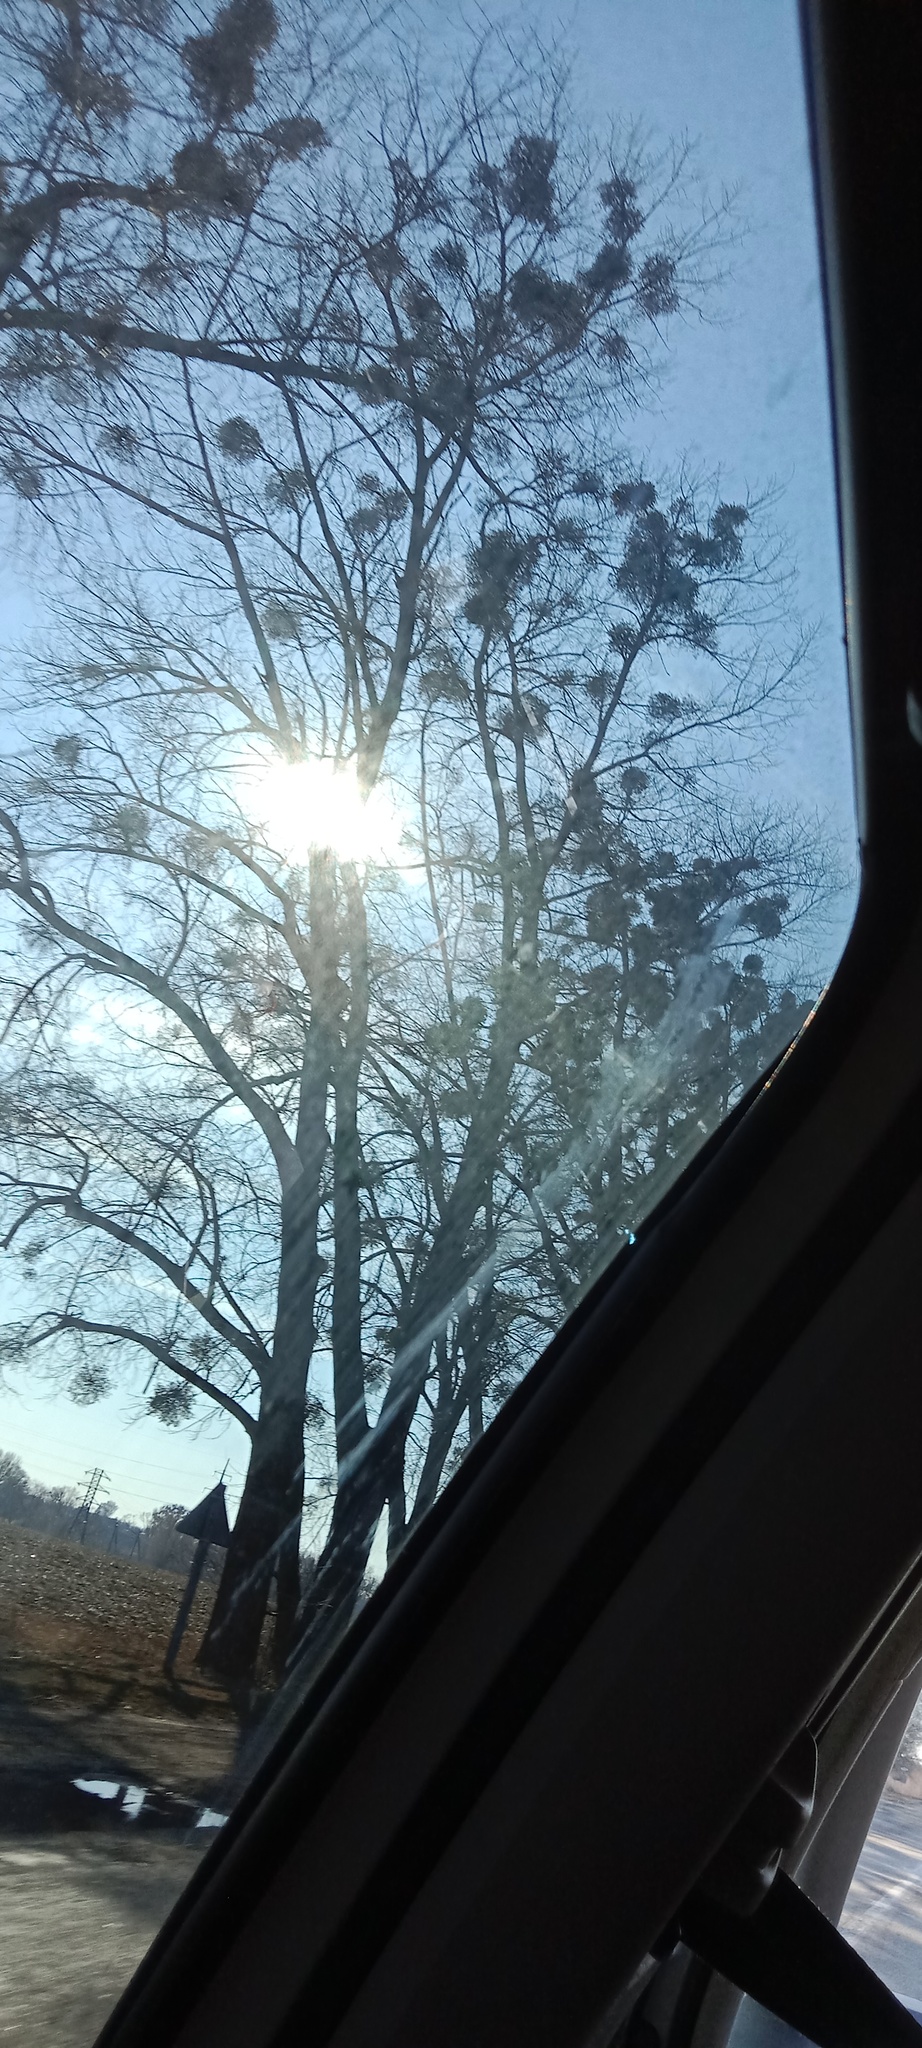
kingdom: Plantae
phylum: Tracheophyta
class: Magnoliopsida
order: Santalales
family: Viscaceae
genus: Viscum
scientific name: Viscum album
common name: Mistletoe
